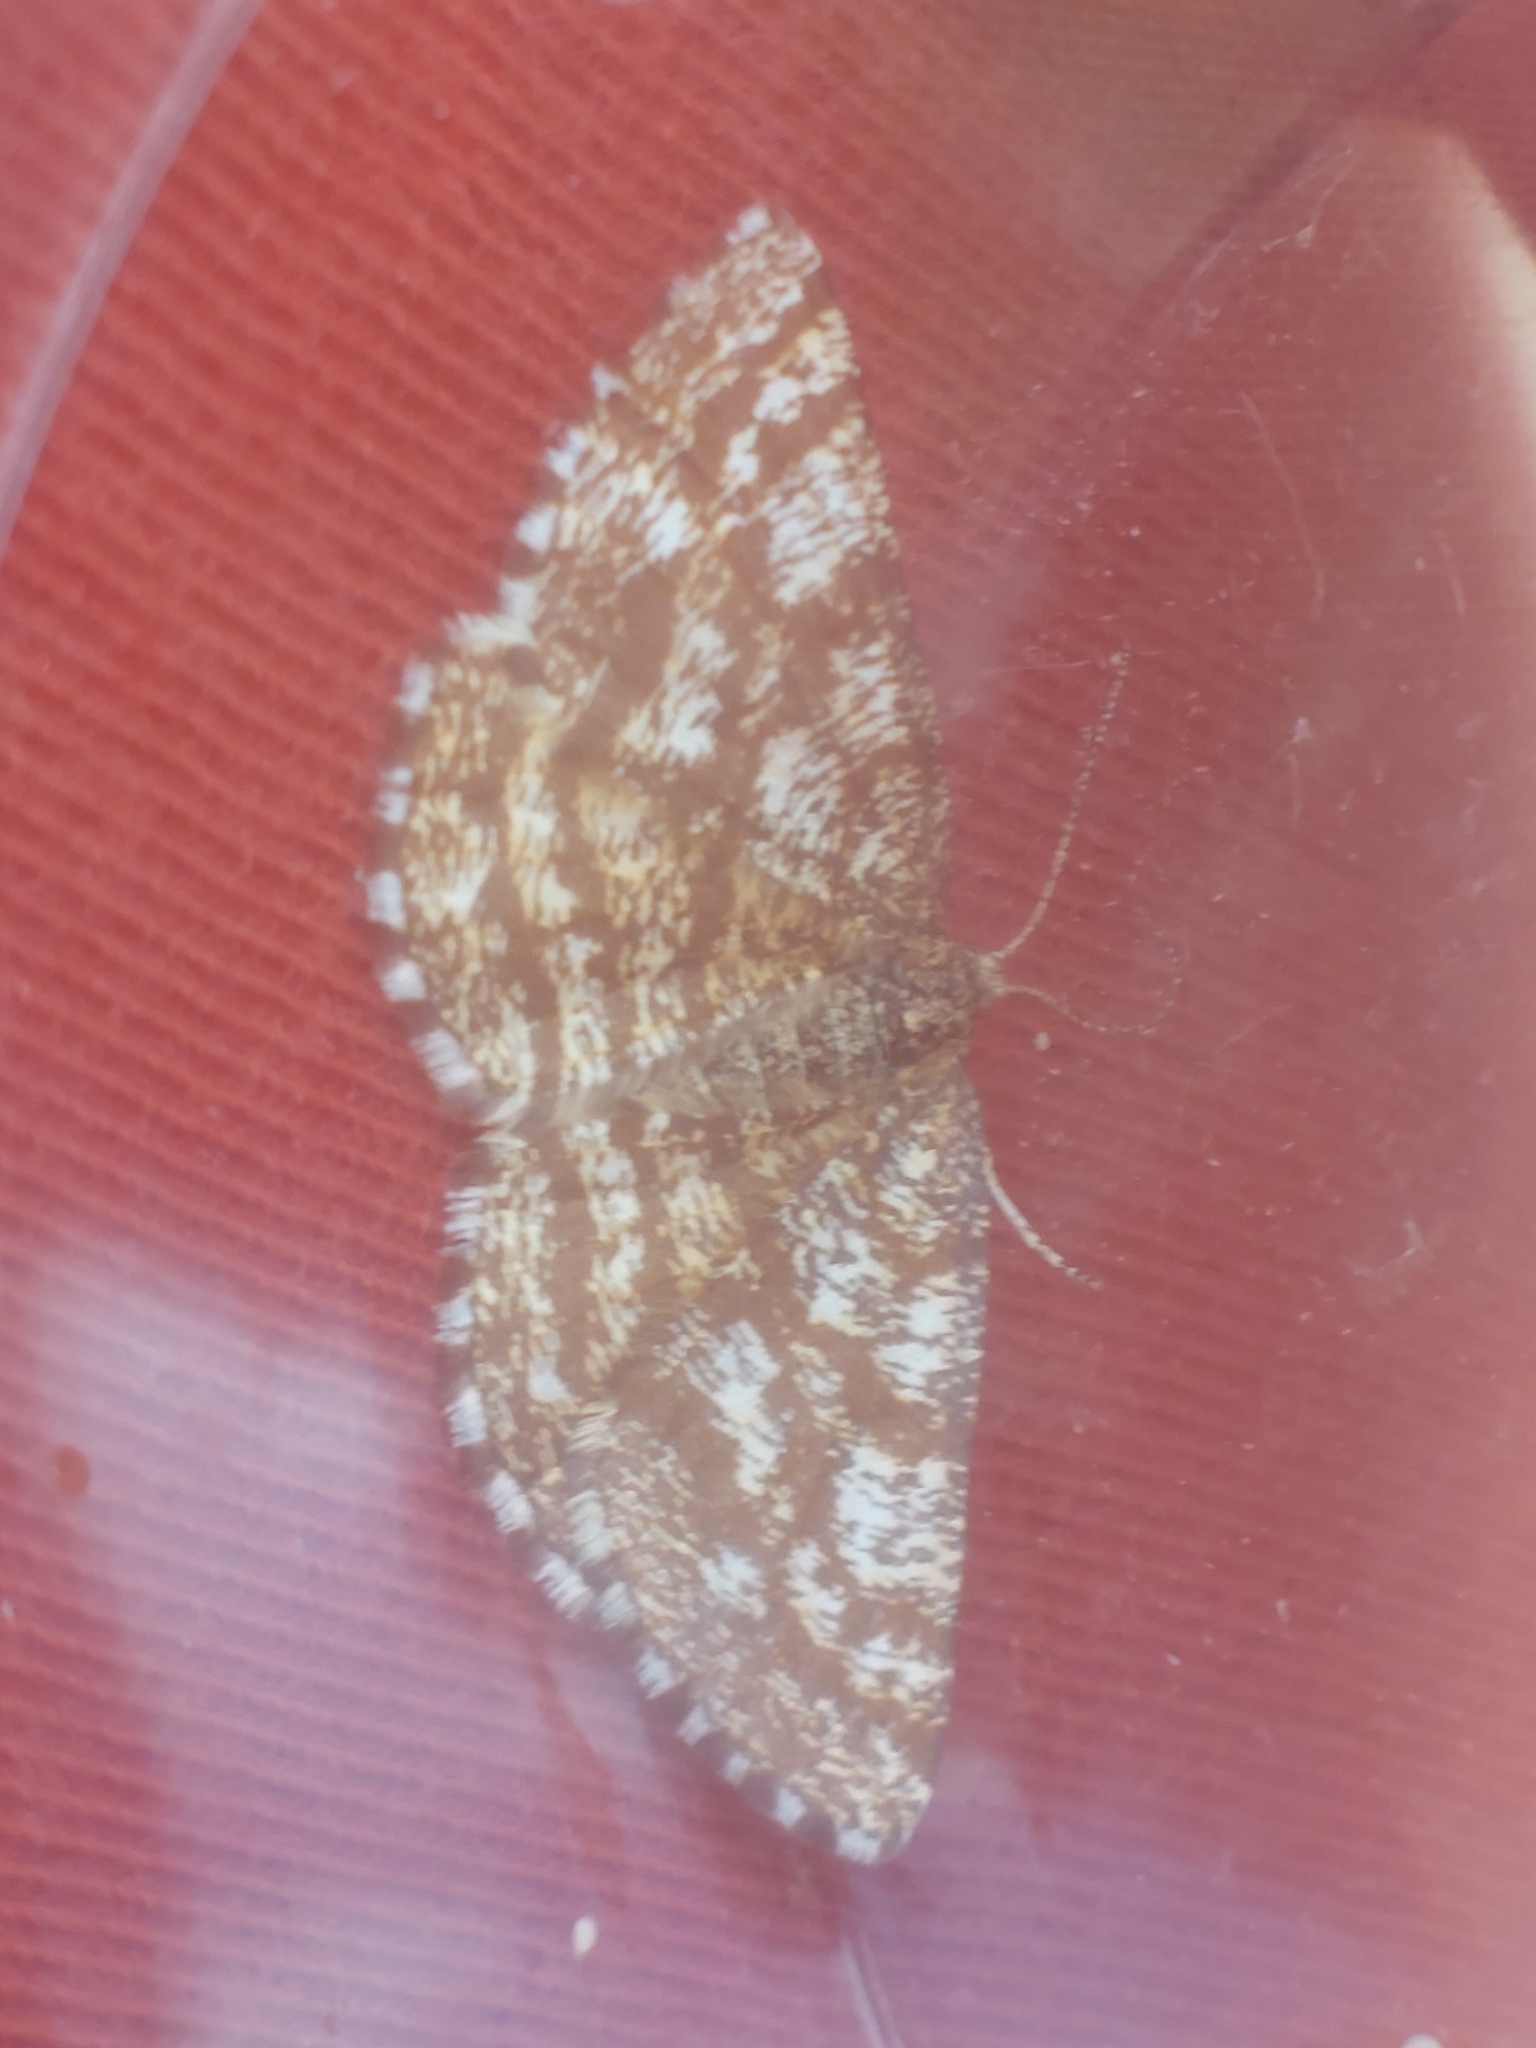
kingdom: Animalia
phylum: Arthropoda
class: Insecta
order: Lepidoptera
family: Geometridae
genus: Ematurga
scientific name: Ematurga atomaria
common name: Common heath
